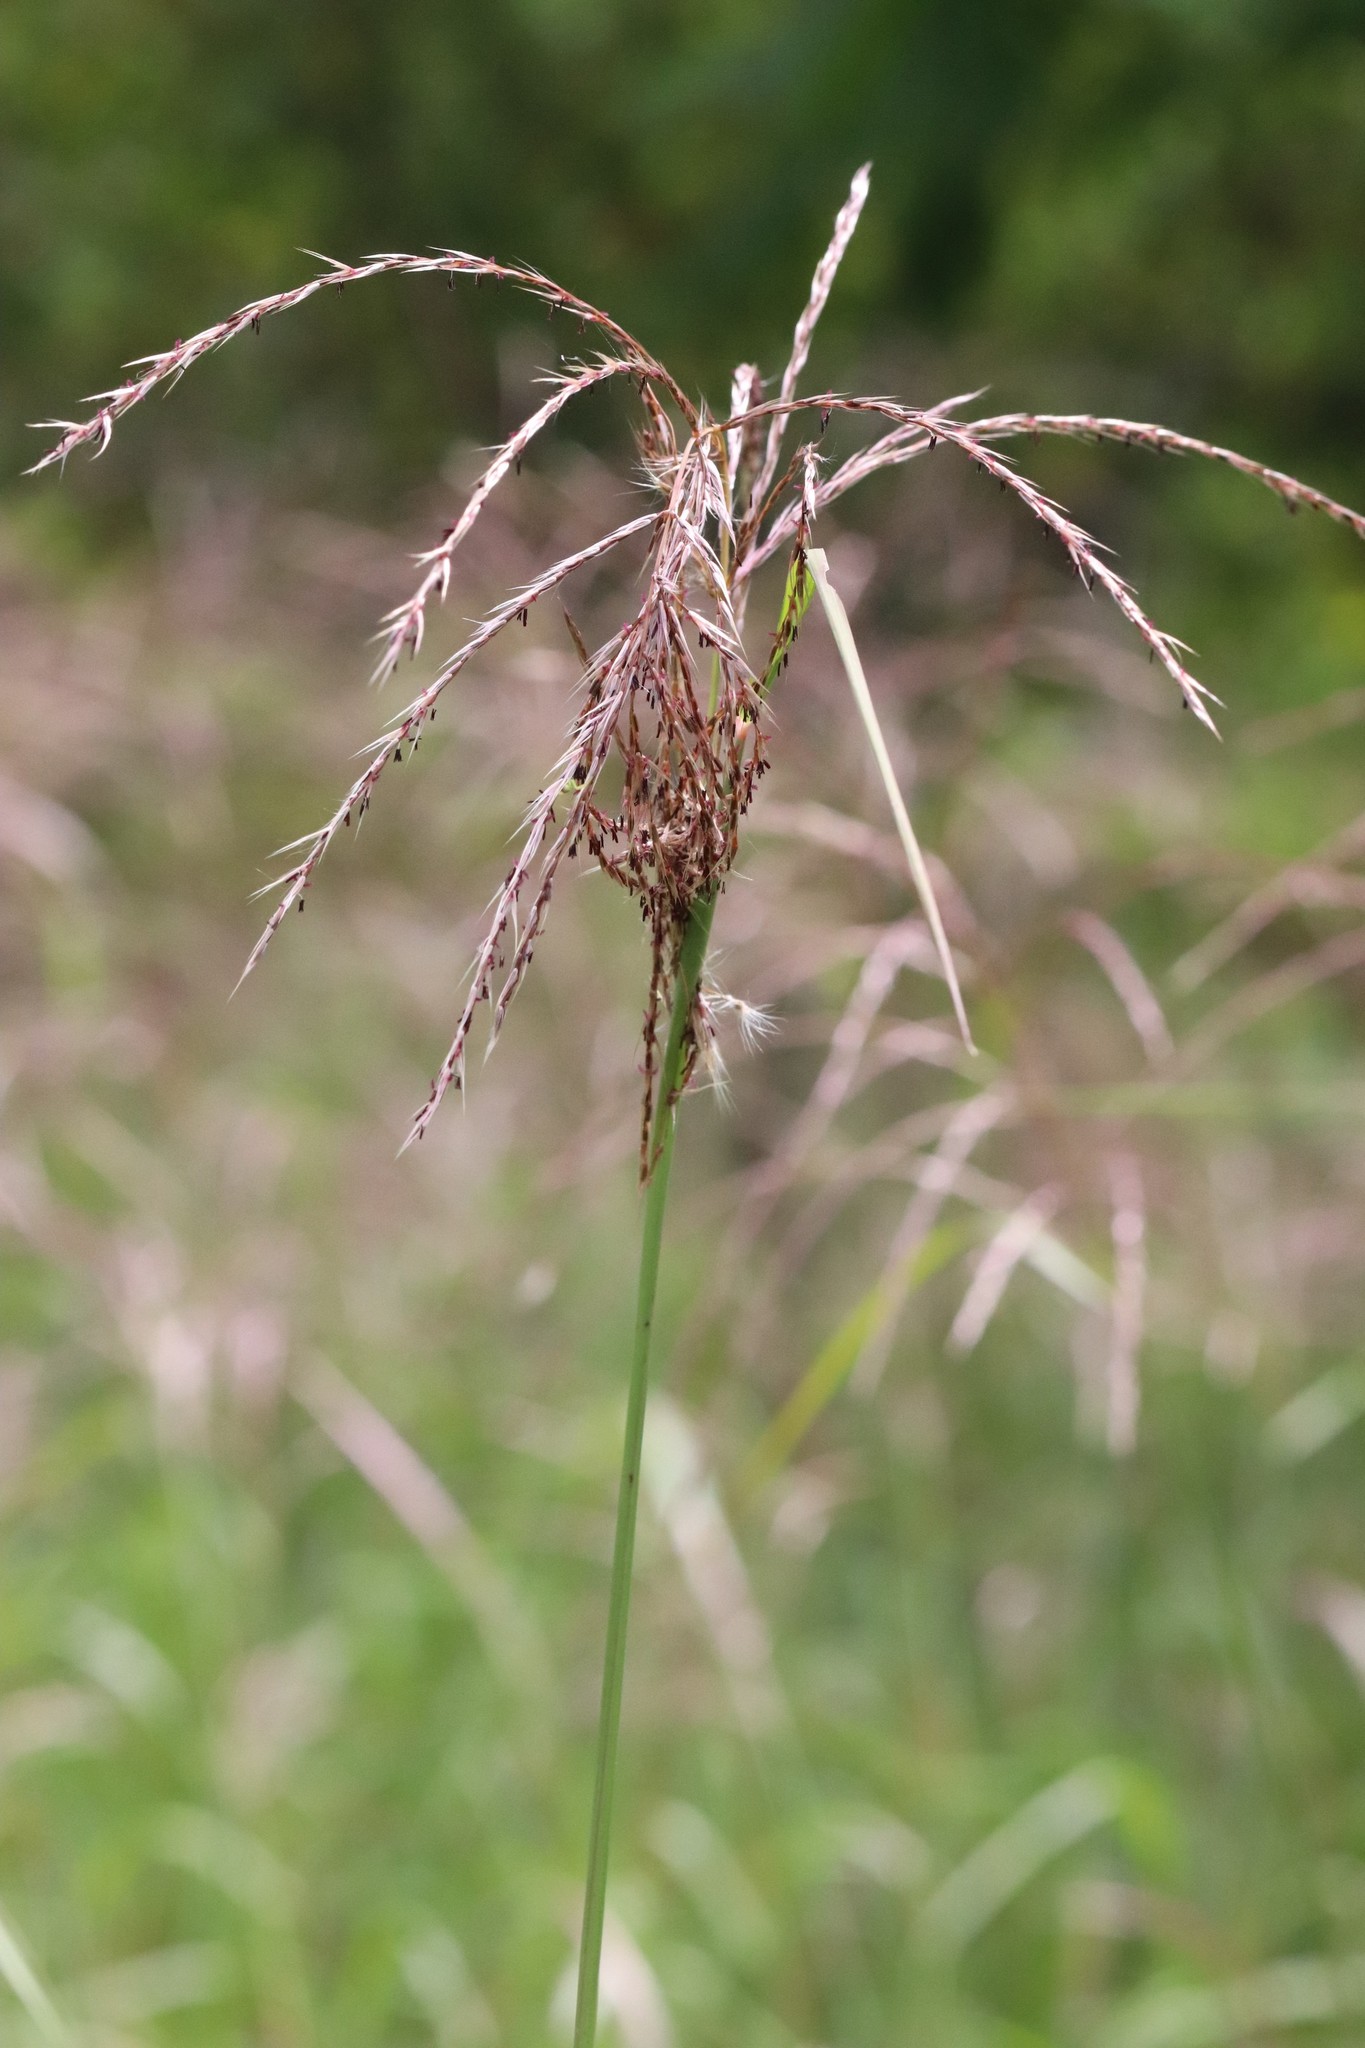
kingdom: Plantae
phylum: Tracheophyta
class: Liliopsida
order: Poales
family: Poaceae
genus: Miscanthus
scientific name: Miscanthus sacchariflorus
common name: Amur silver grass
